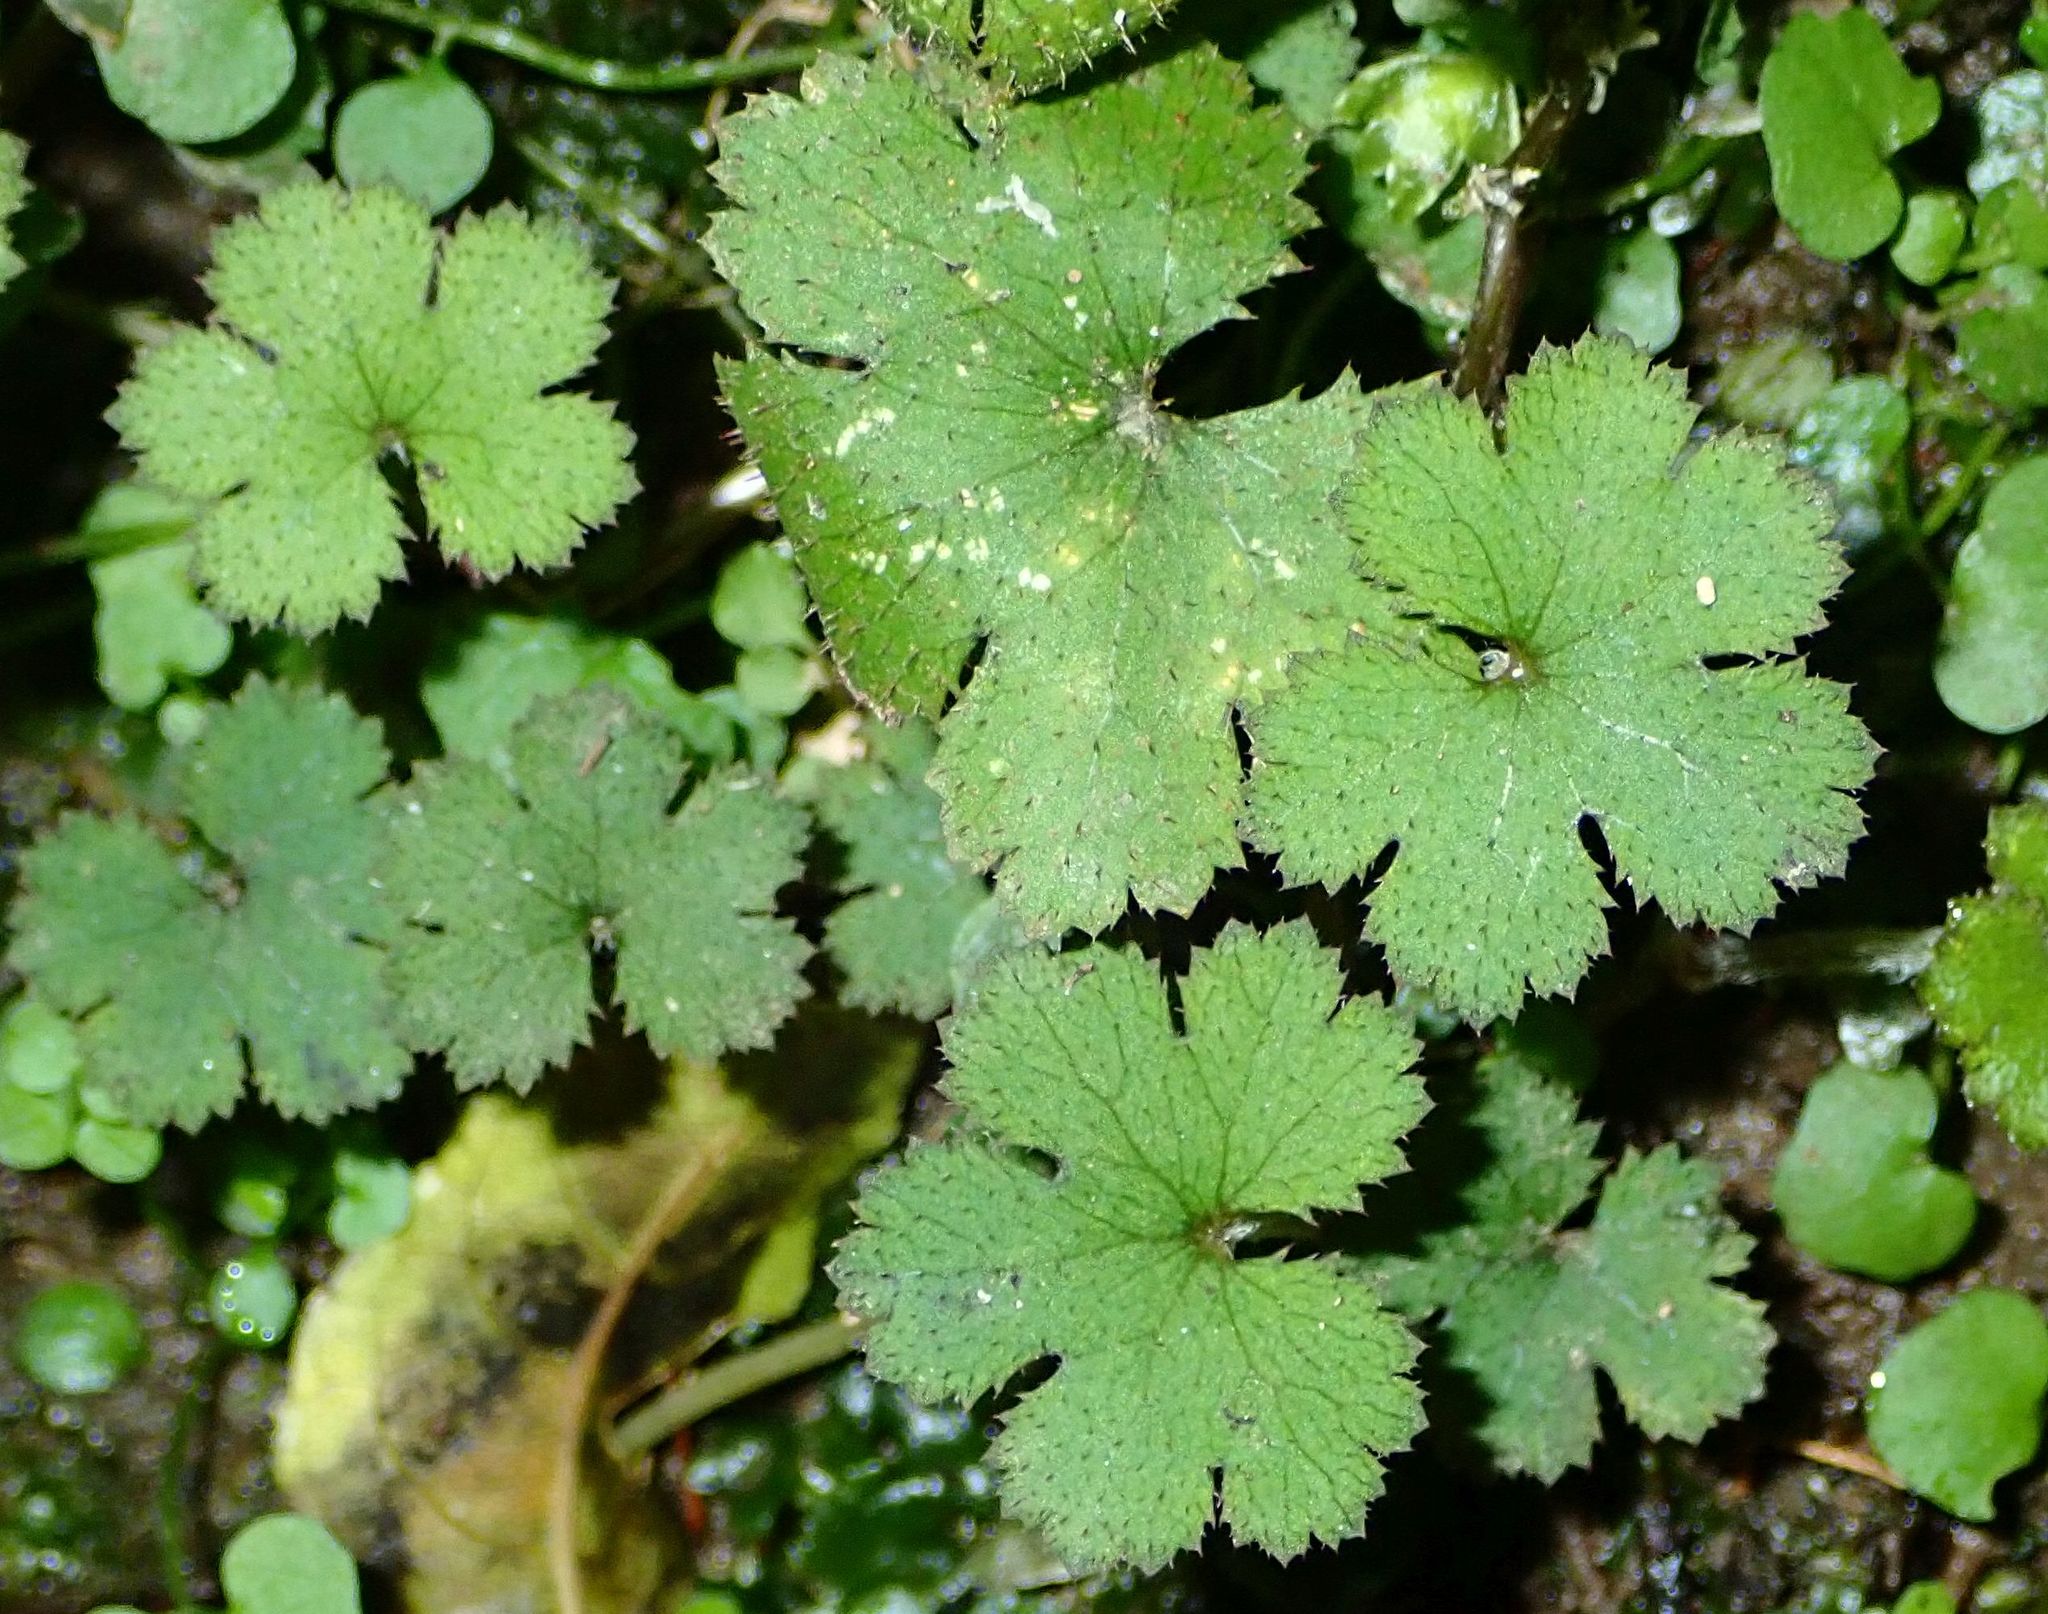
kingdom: Plantae
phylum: Tracheophyta
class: Magnoliopsida
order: Apiales
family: Araliaceae
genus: Hydrocotyle
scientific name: Hydrocotyle elongata
